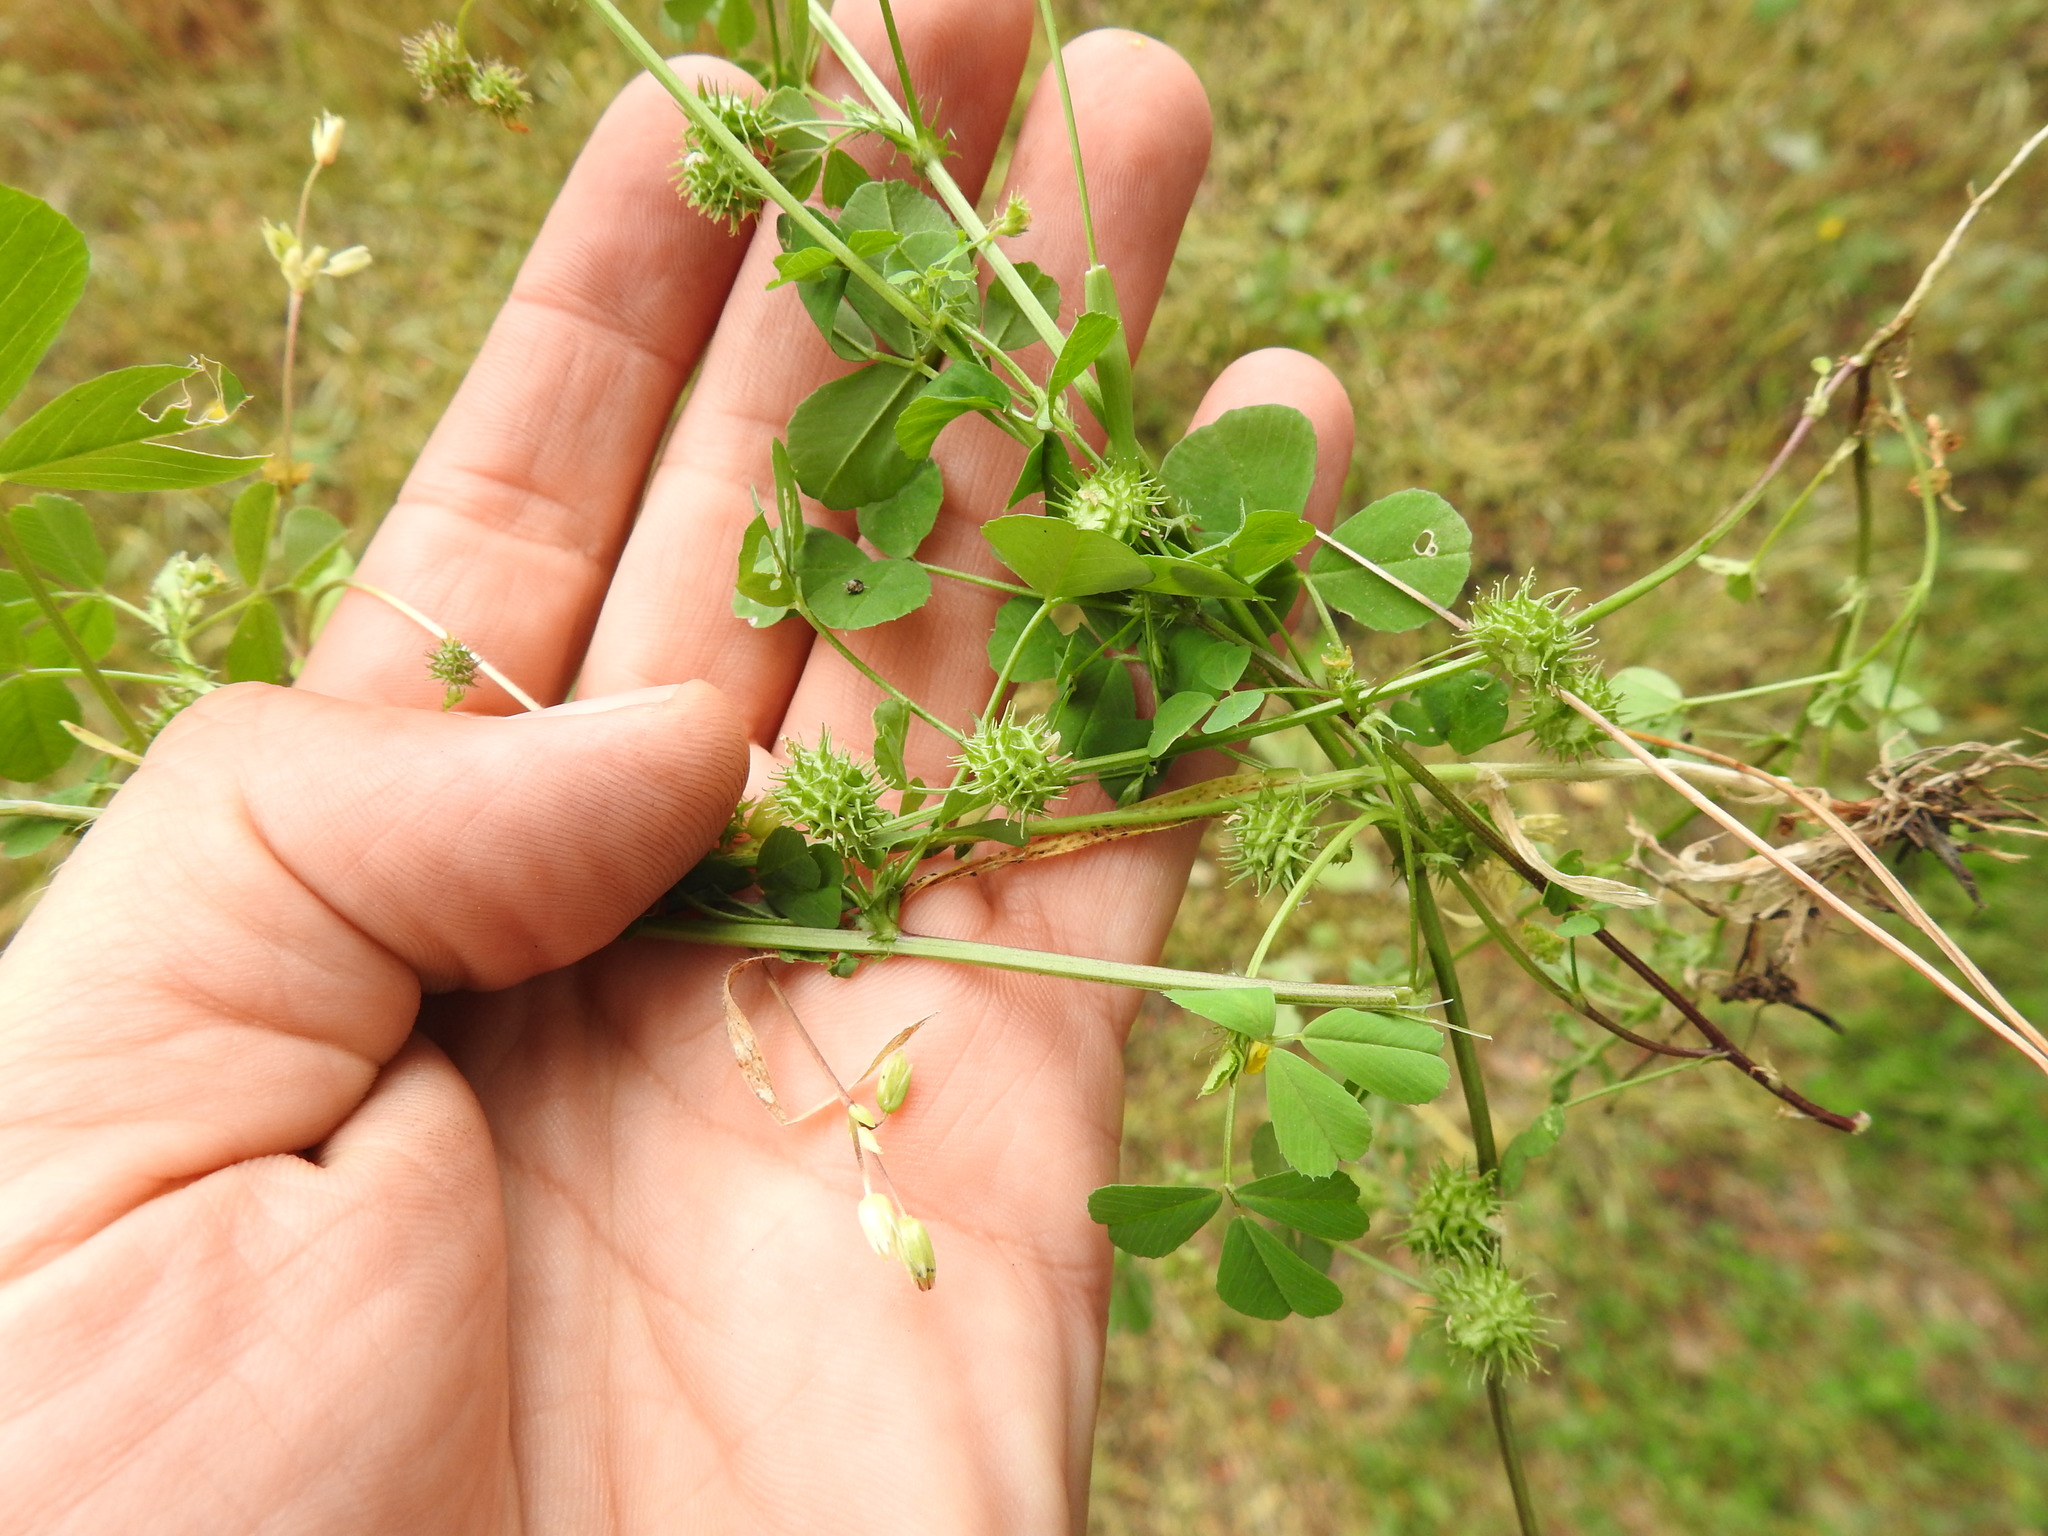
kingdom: Plantae
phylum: Tracheophyta
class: Magnoliopsida
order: Fabales
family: Fabaceae
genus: Medicago
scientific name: Medicago polymorpha
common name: Burclover
